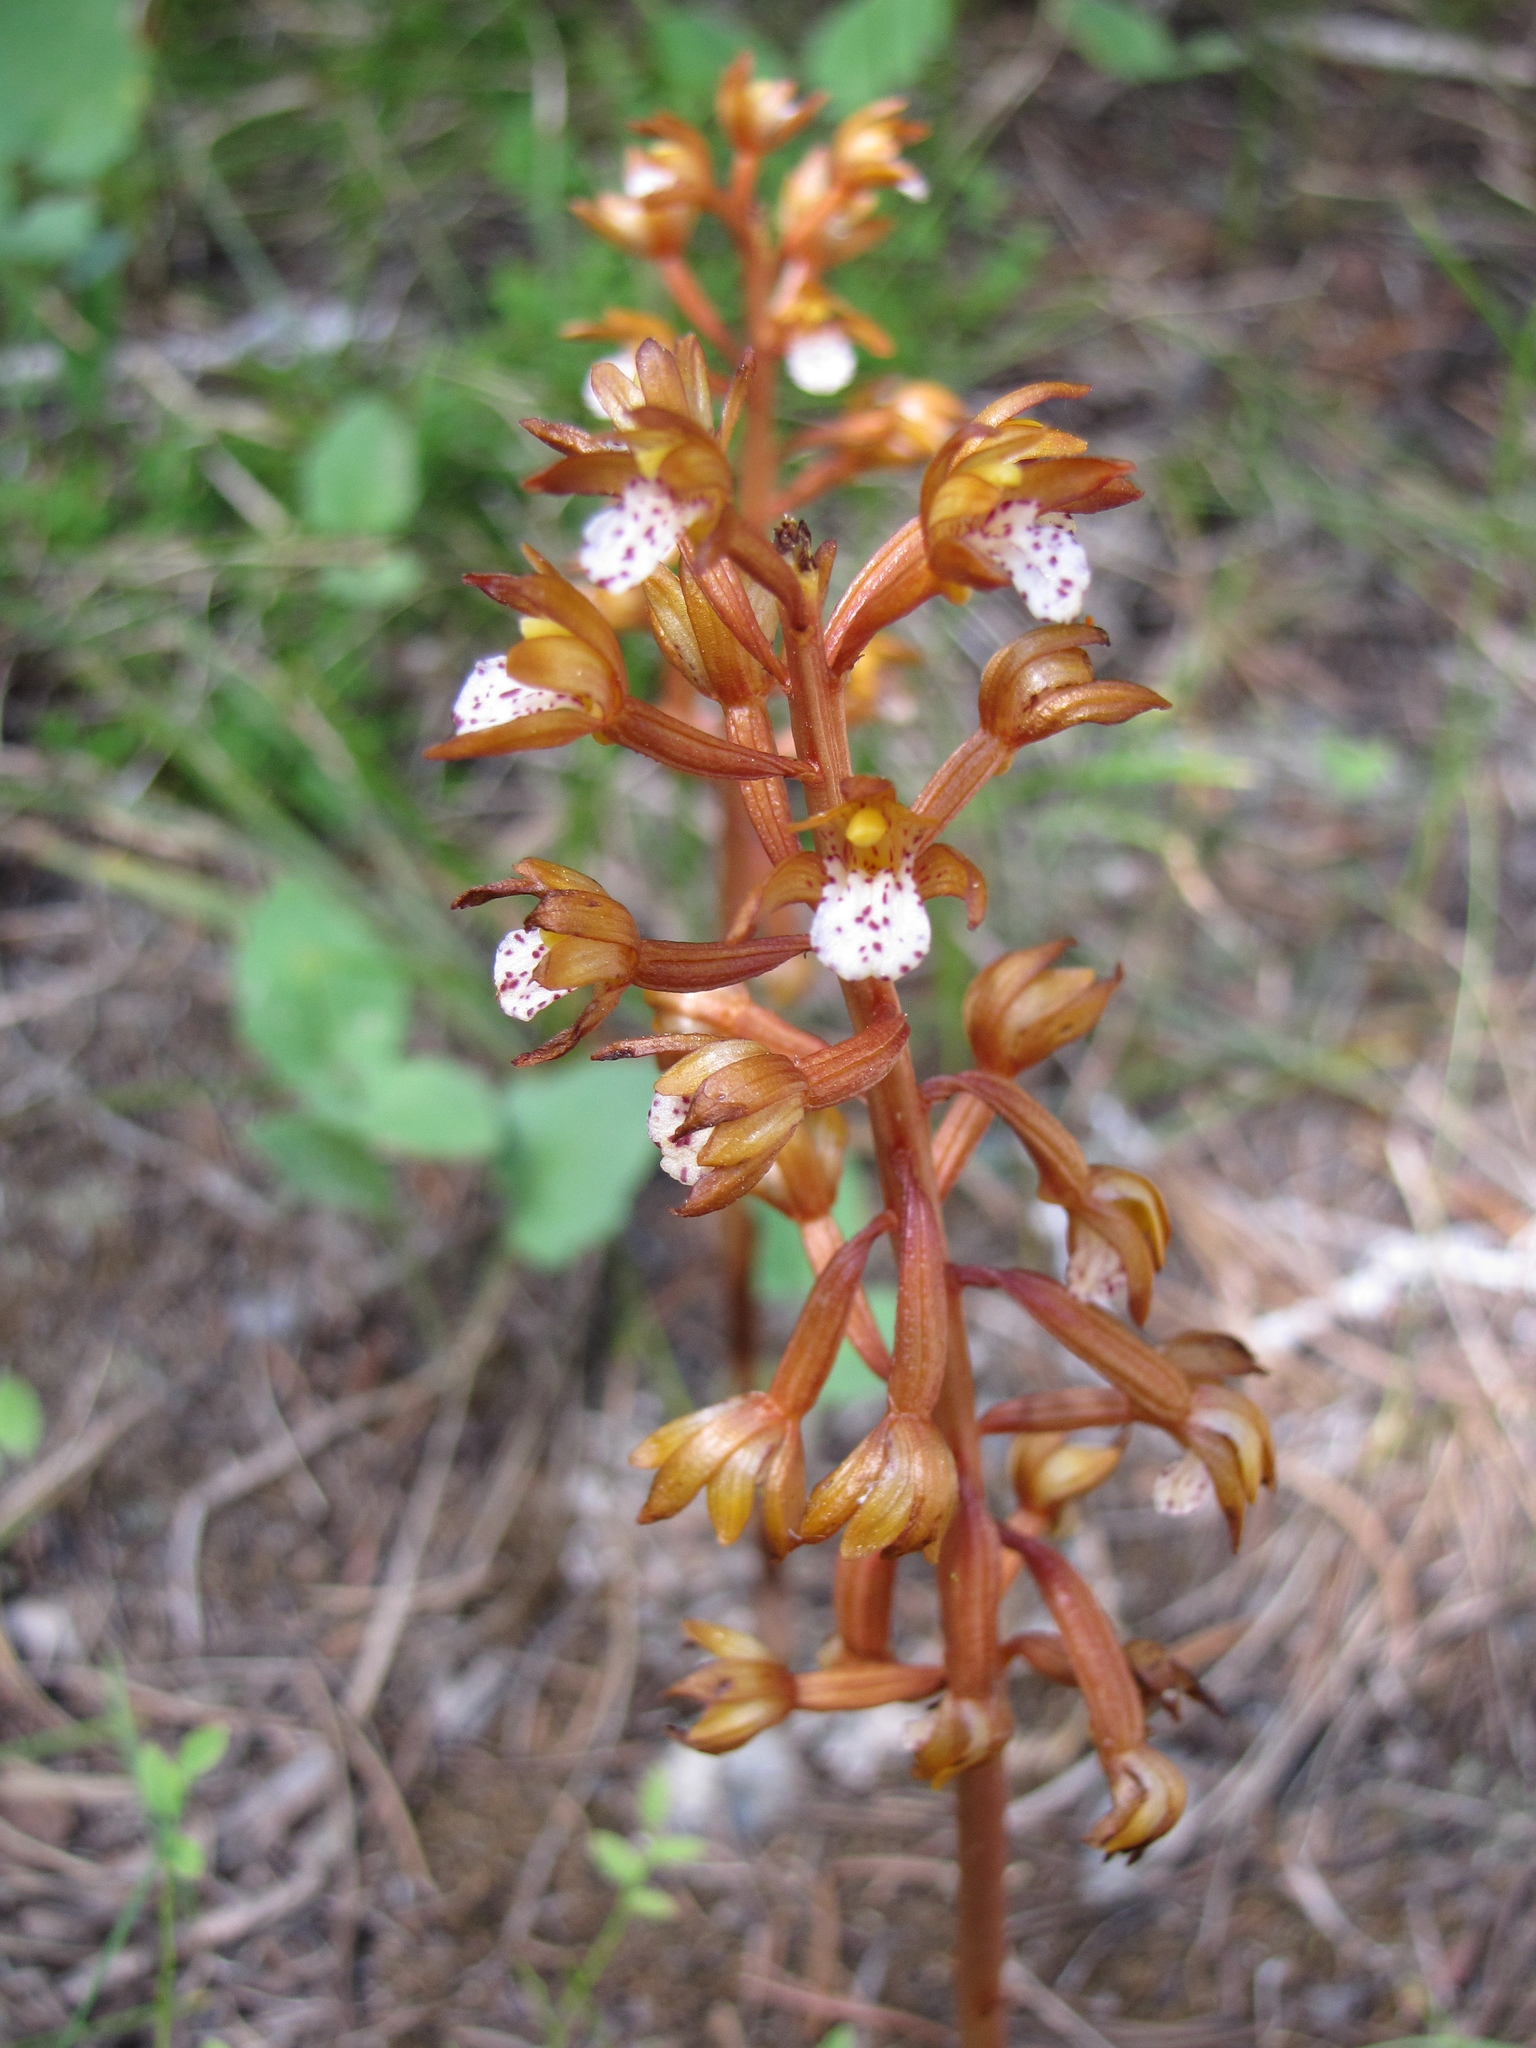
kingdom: Plantae
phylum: Tracheophyta
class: Liliopsida
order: Asparagales
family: Orchidaceae
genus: Corallorhiza
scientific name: Corallorhiza maculata
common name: Spotted coralroot
